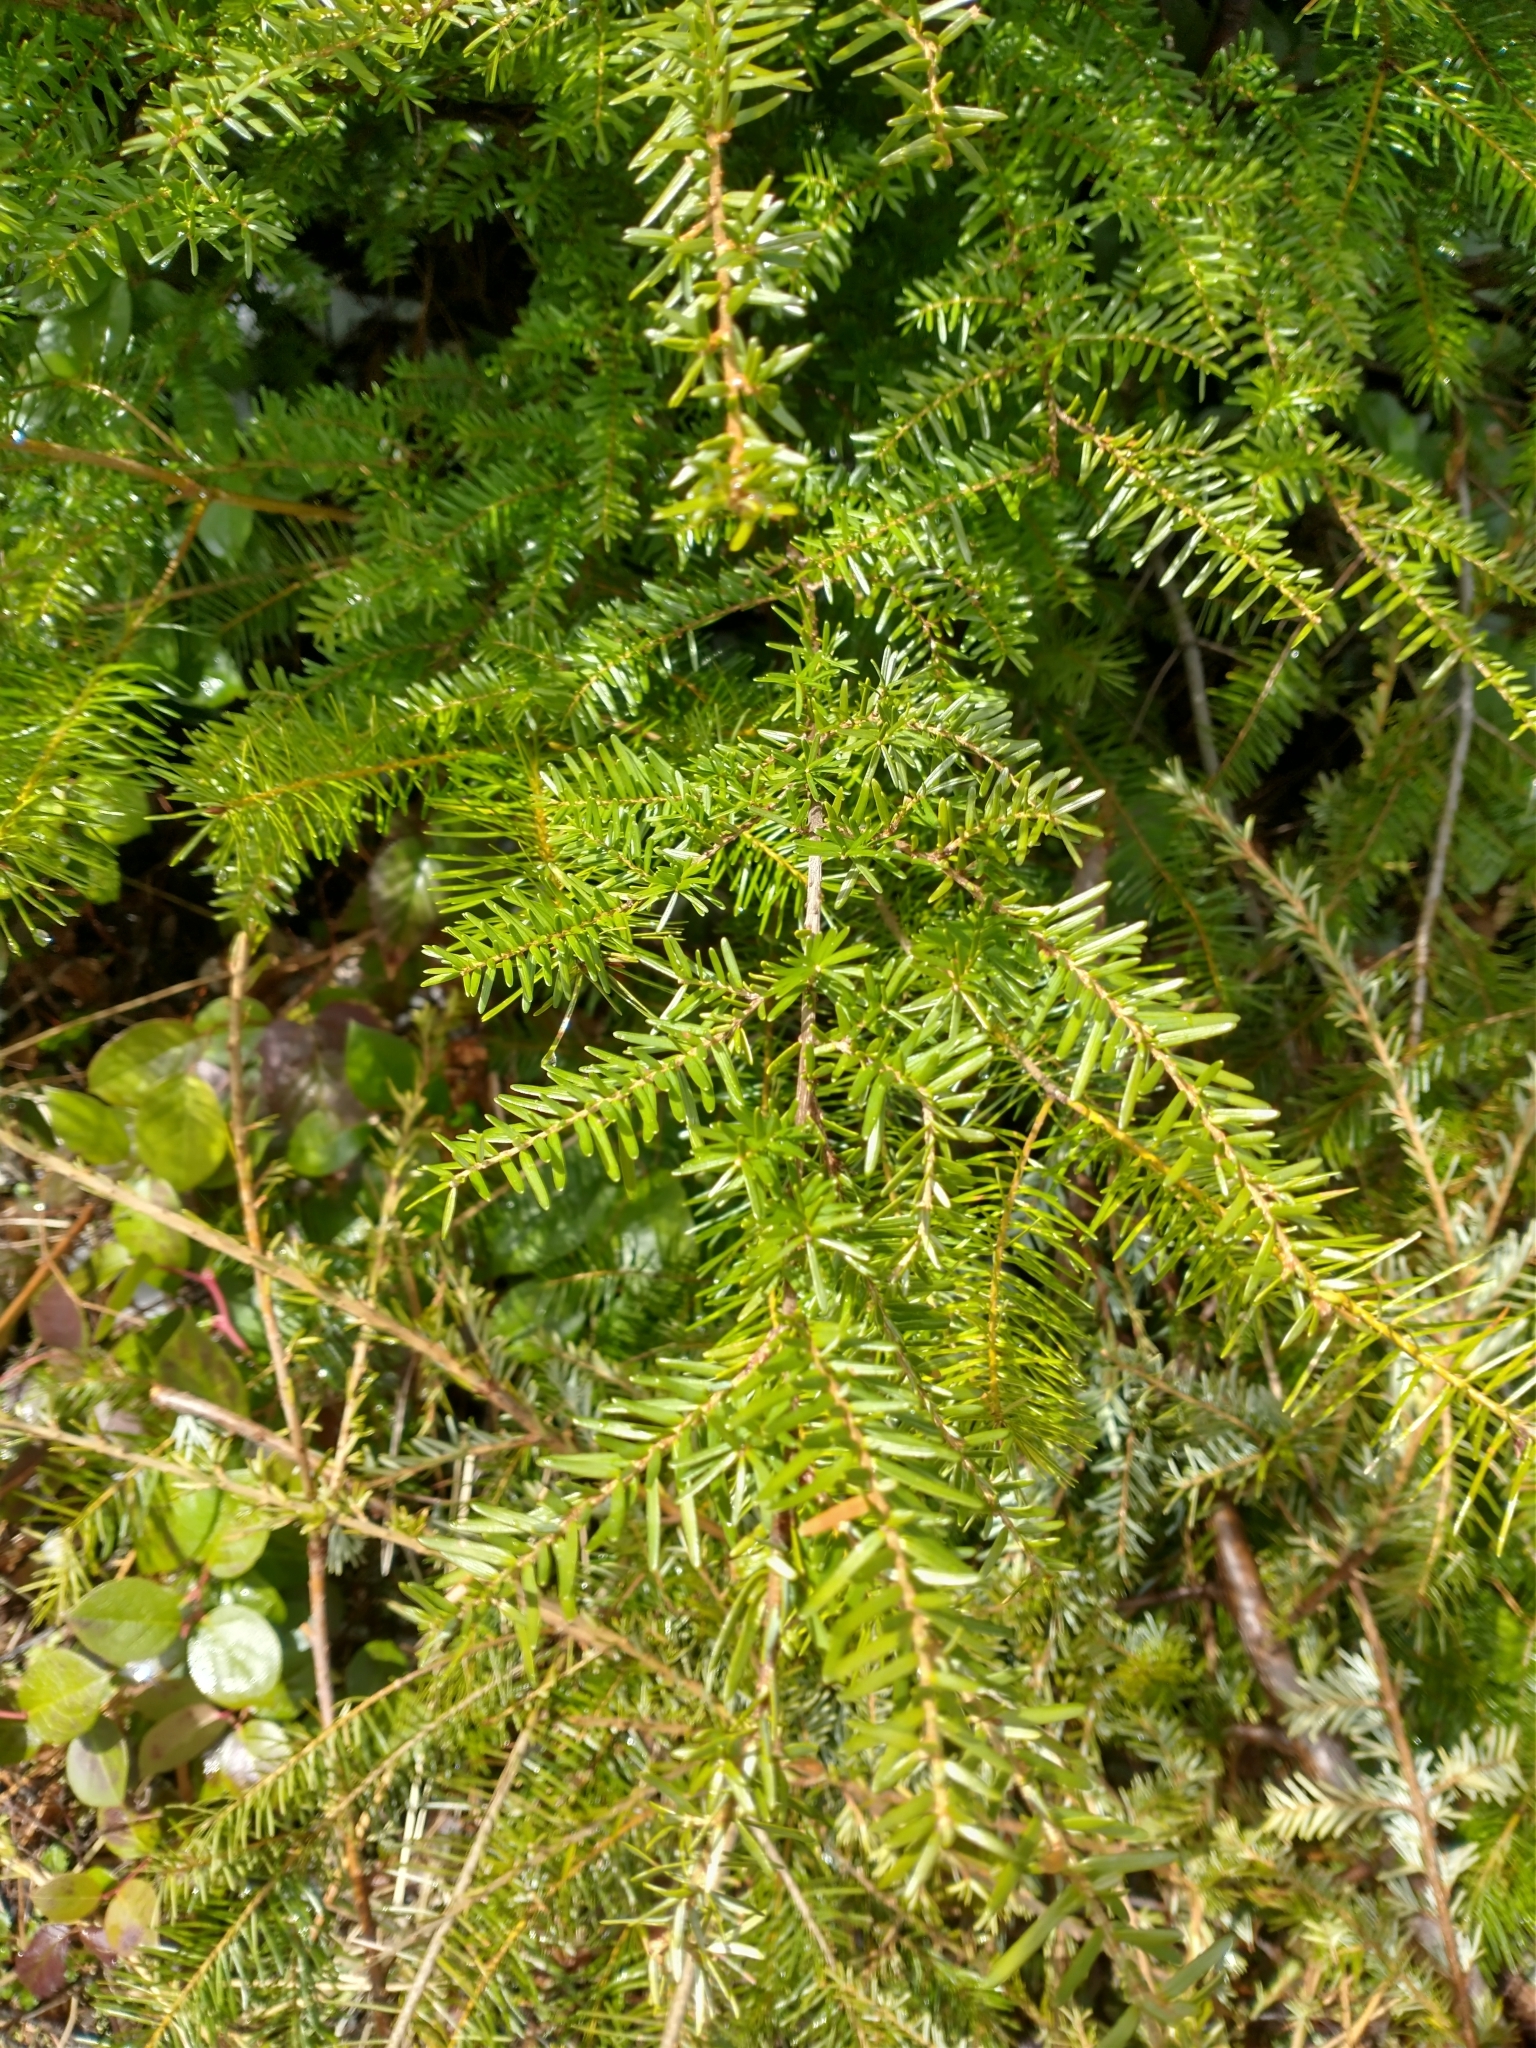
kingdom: Plantae
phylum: Tracheophyta
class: Pinopsida
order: Pinales
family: Pinaceae
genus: Tsuga
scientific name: Tsuga heterophylla
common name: Western hemlock
